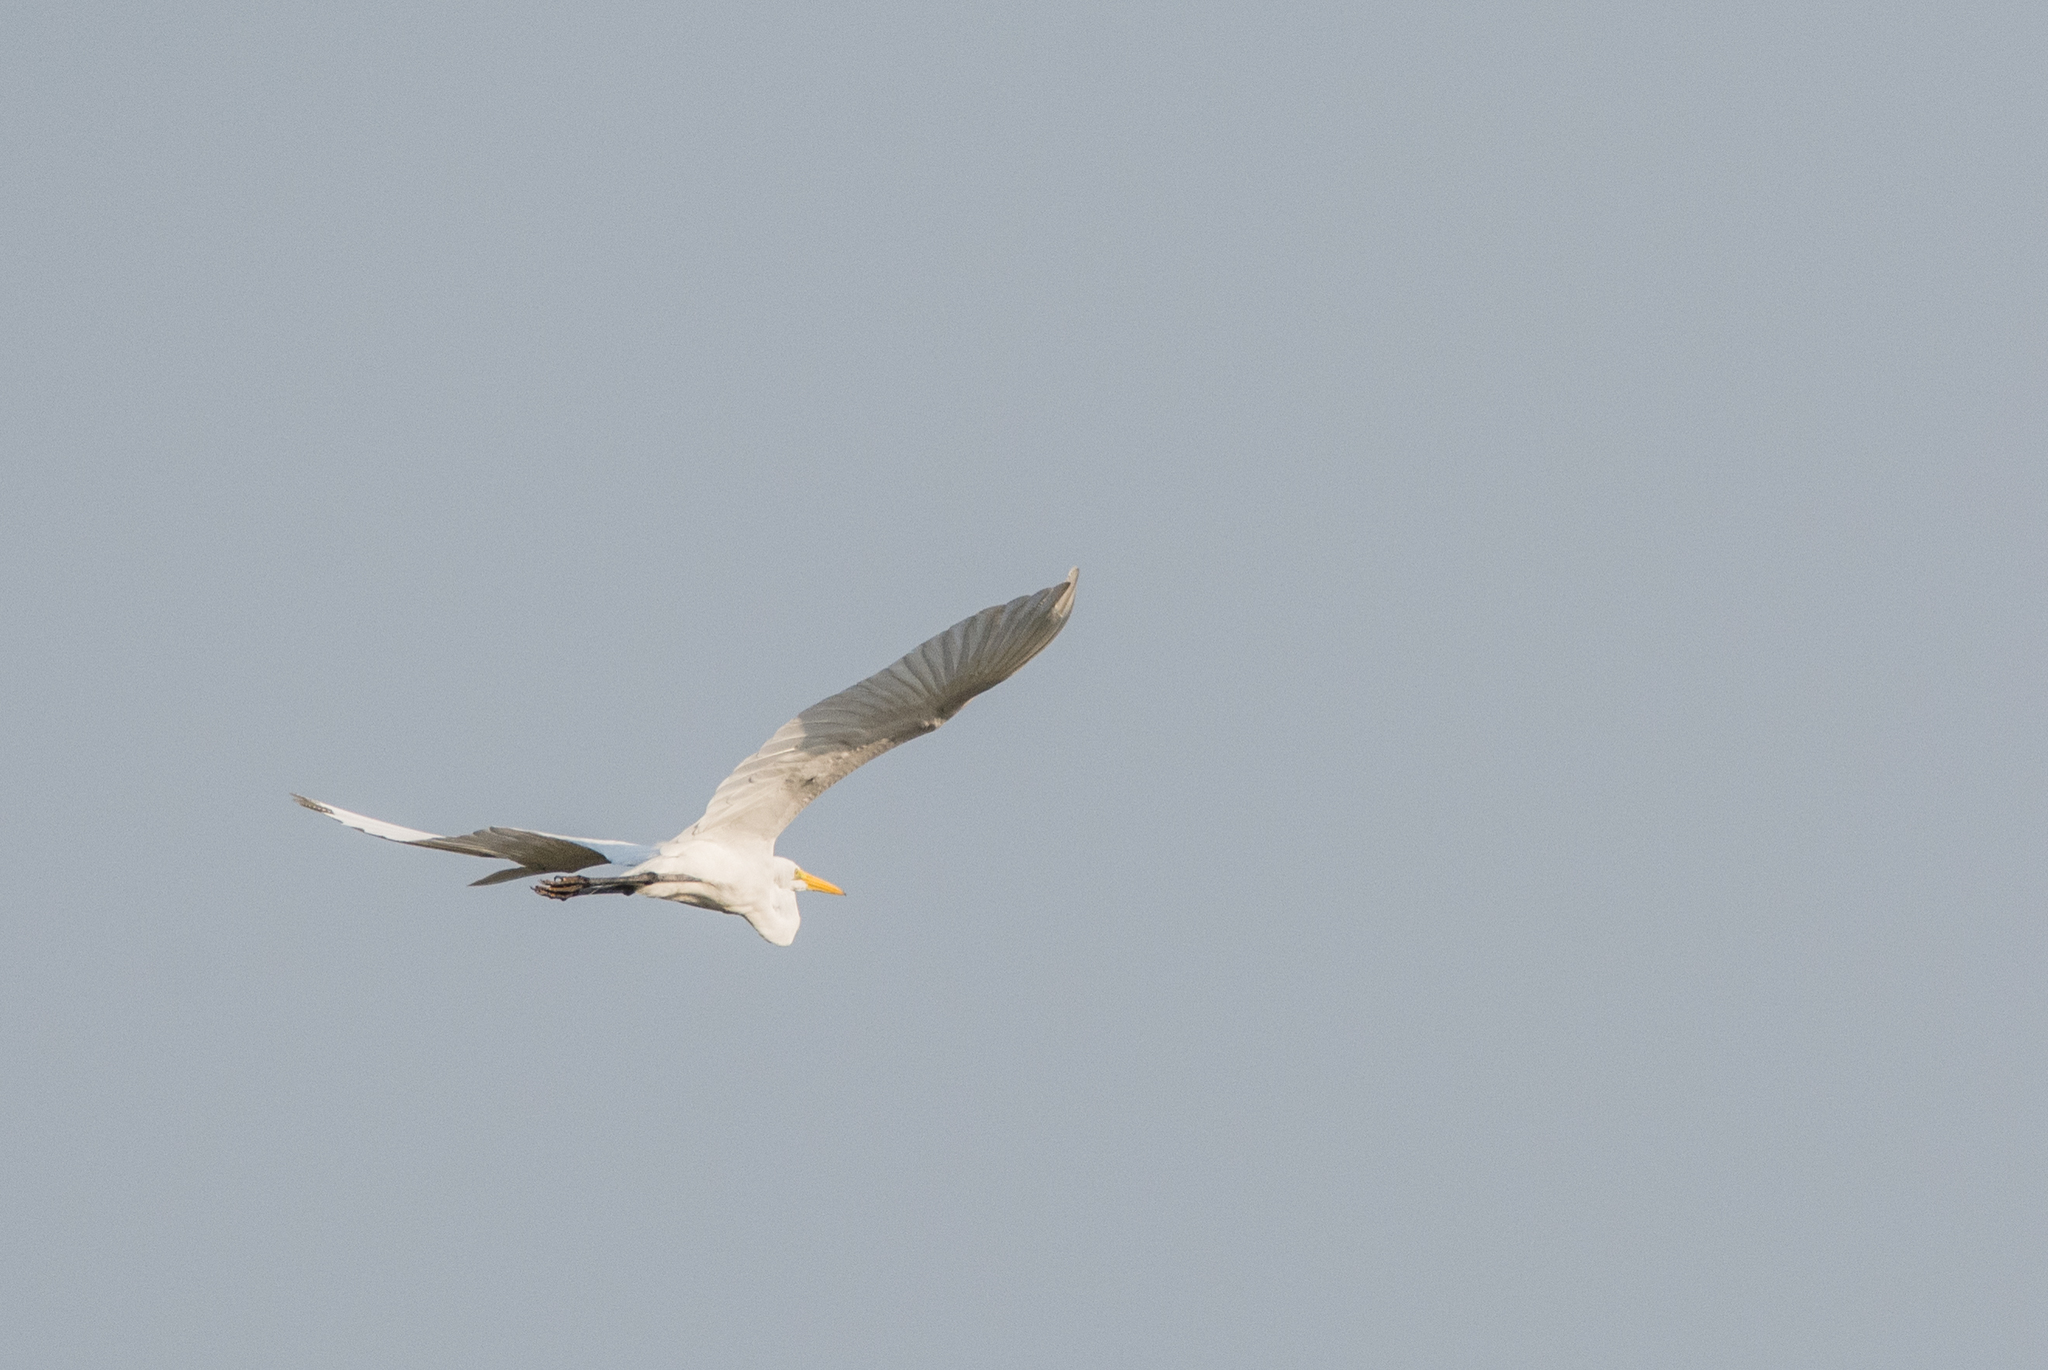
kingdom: Animalia
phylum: Chordata
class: Aves
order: Pelecaniformes
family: Ardeidae
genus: Ardea
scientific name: Ardea alba
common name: Great egret
